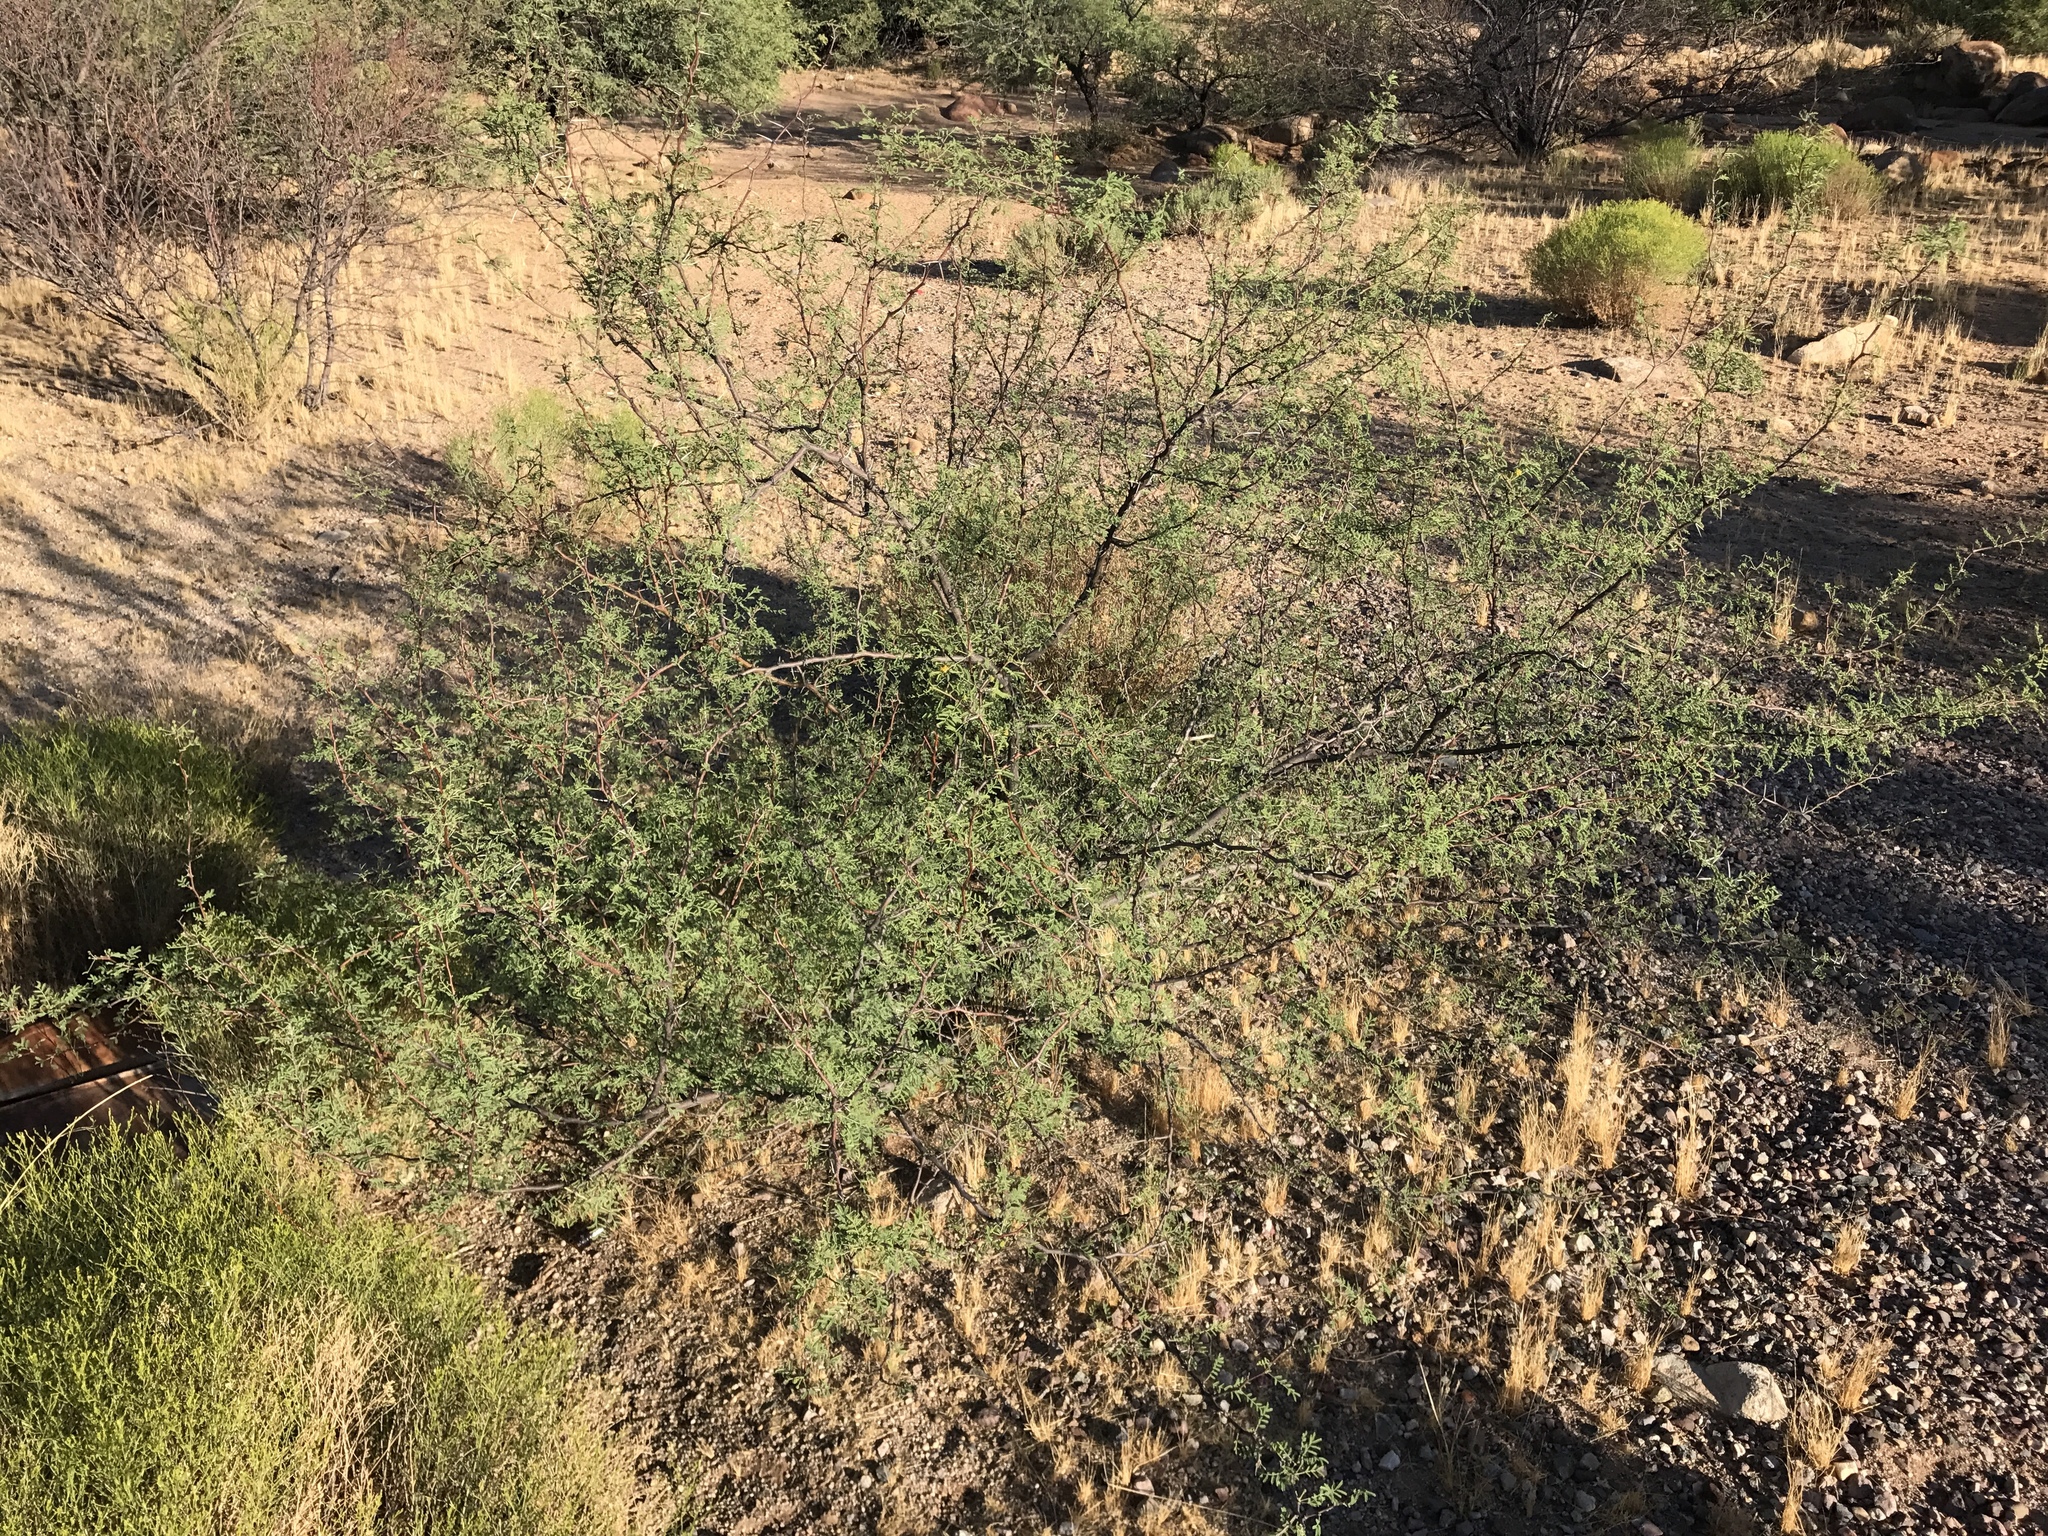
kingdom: Plantae
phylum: Tracheophyta
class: Magnoliopsida
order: Fabales
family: Fabaceae
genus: Vachellia
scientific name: Vachellia constricta
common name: Mescat acacia
